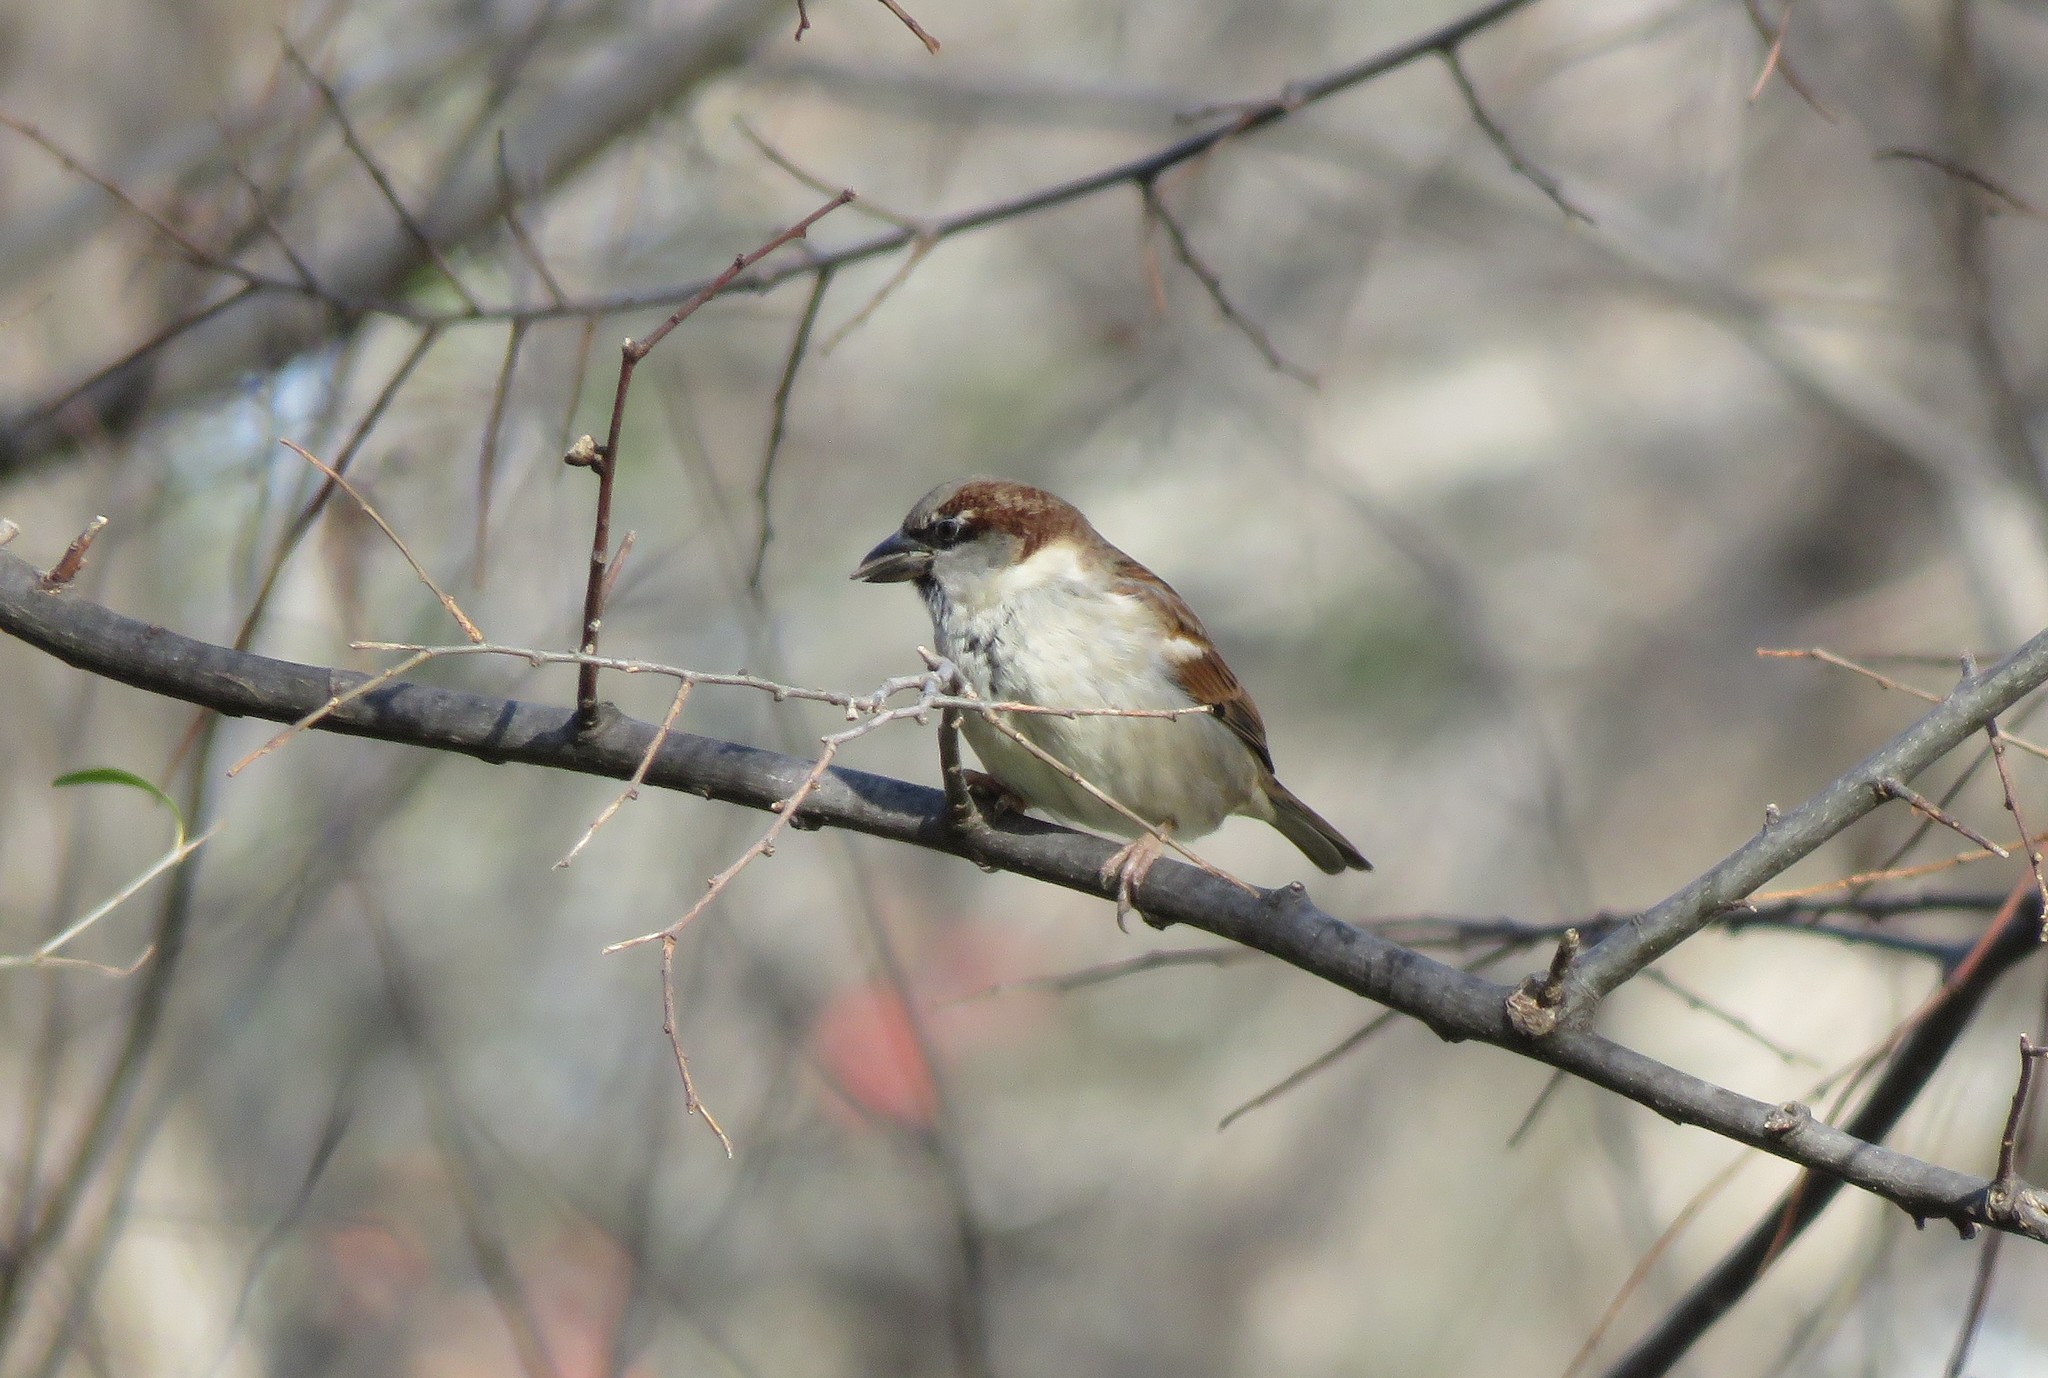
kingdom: Animalia
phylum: Chordata
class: Aves
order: Passeriformes
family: Passeridae
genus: Passer
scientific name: Passer domesticus
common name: House sparrow
